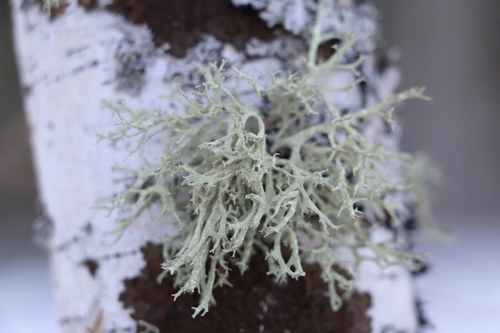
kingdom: Fungi
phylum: Ascomycota
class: Lecanoromycetes
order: Lecanorales
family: Parmeliaceae
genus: Evernia
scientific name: Evernia mesomorpha
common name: Boreal oak moss lichen
